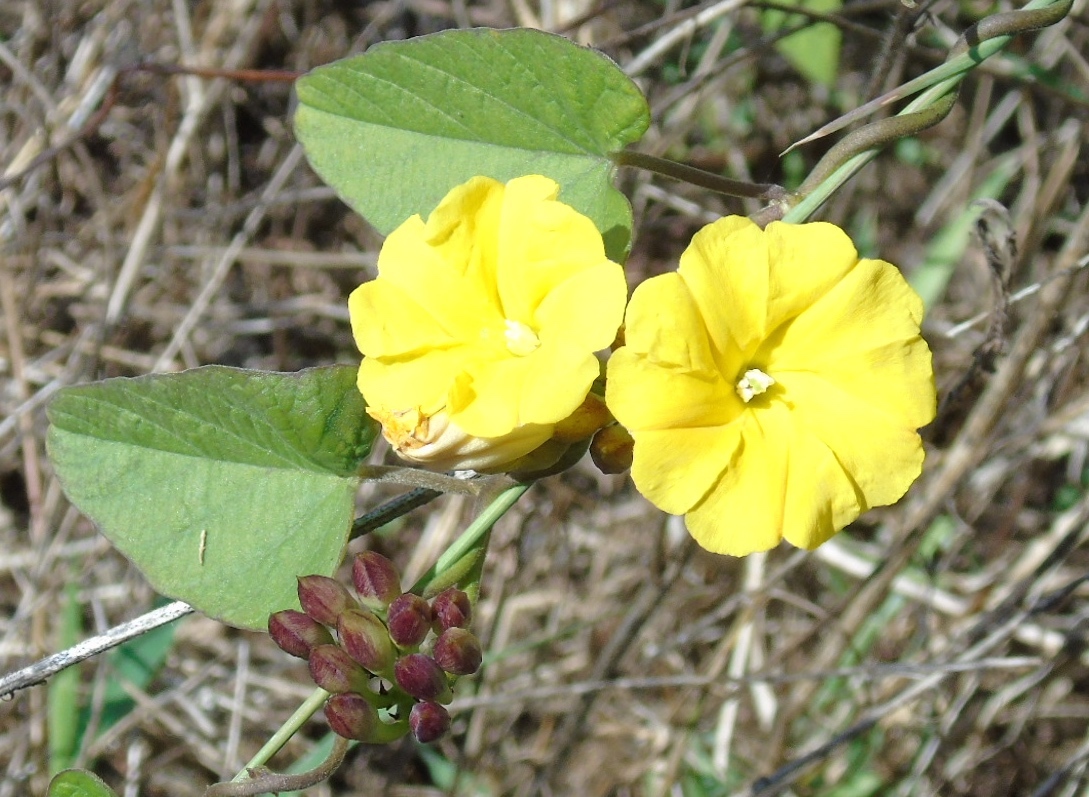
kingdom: Plantae
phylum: Tracheophyta
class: Magnoliopsida
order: Solanales
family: Convolvulaceae
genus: Camonea
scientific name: Camonea umbellata
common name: Hogvine
